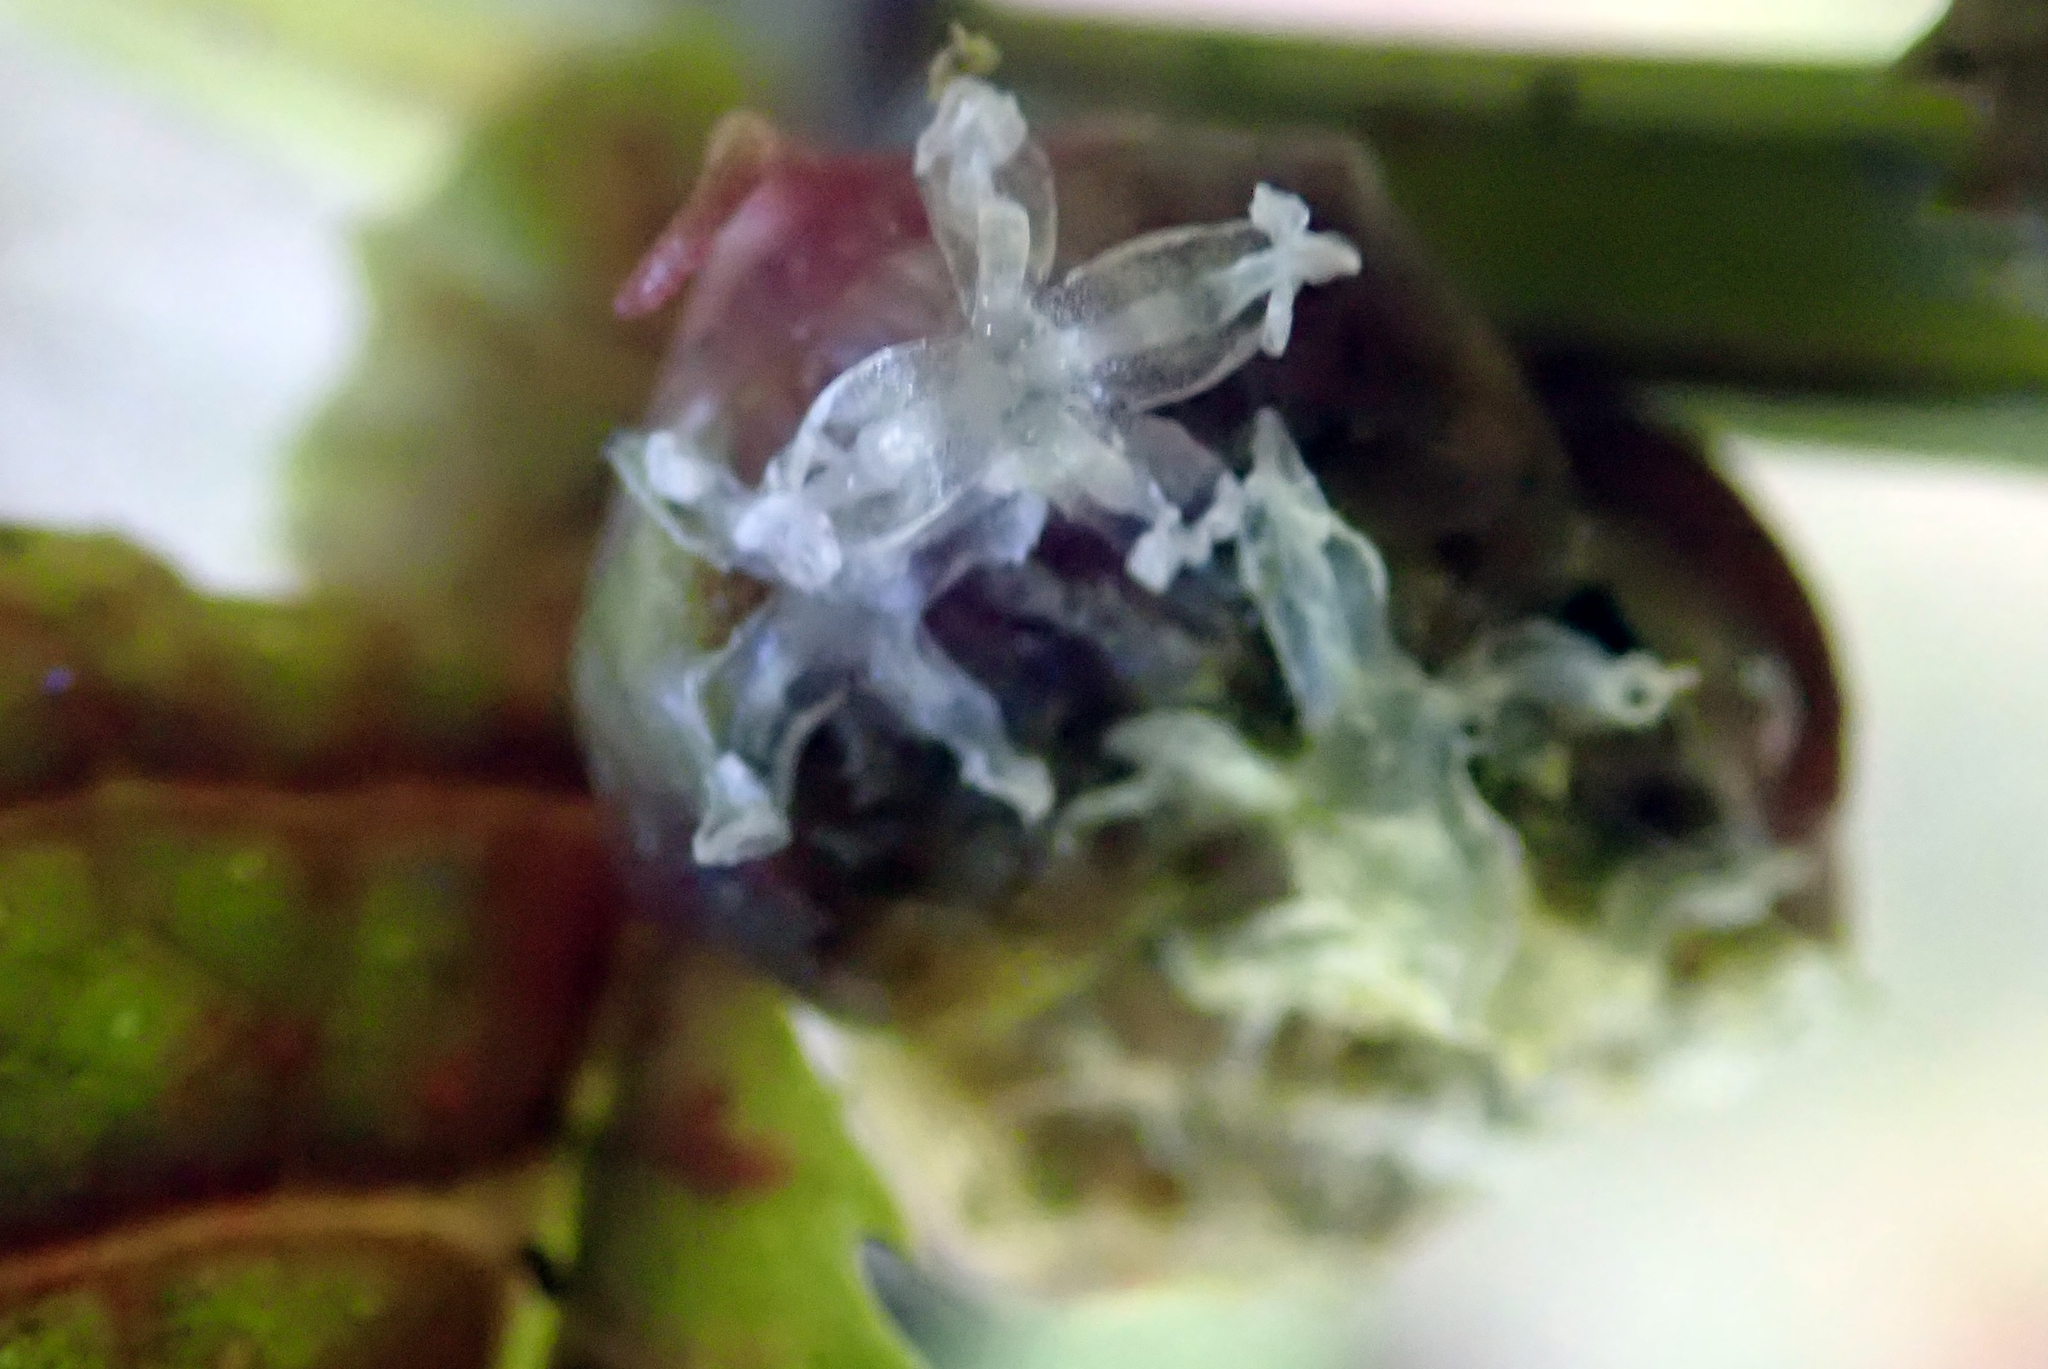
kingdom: Plantae
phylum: Tracheophyta
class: Magnoliopsida
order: Rosales
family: Urticaceae
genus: Elatostema
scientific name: Elatostema rugosum
